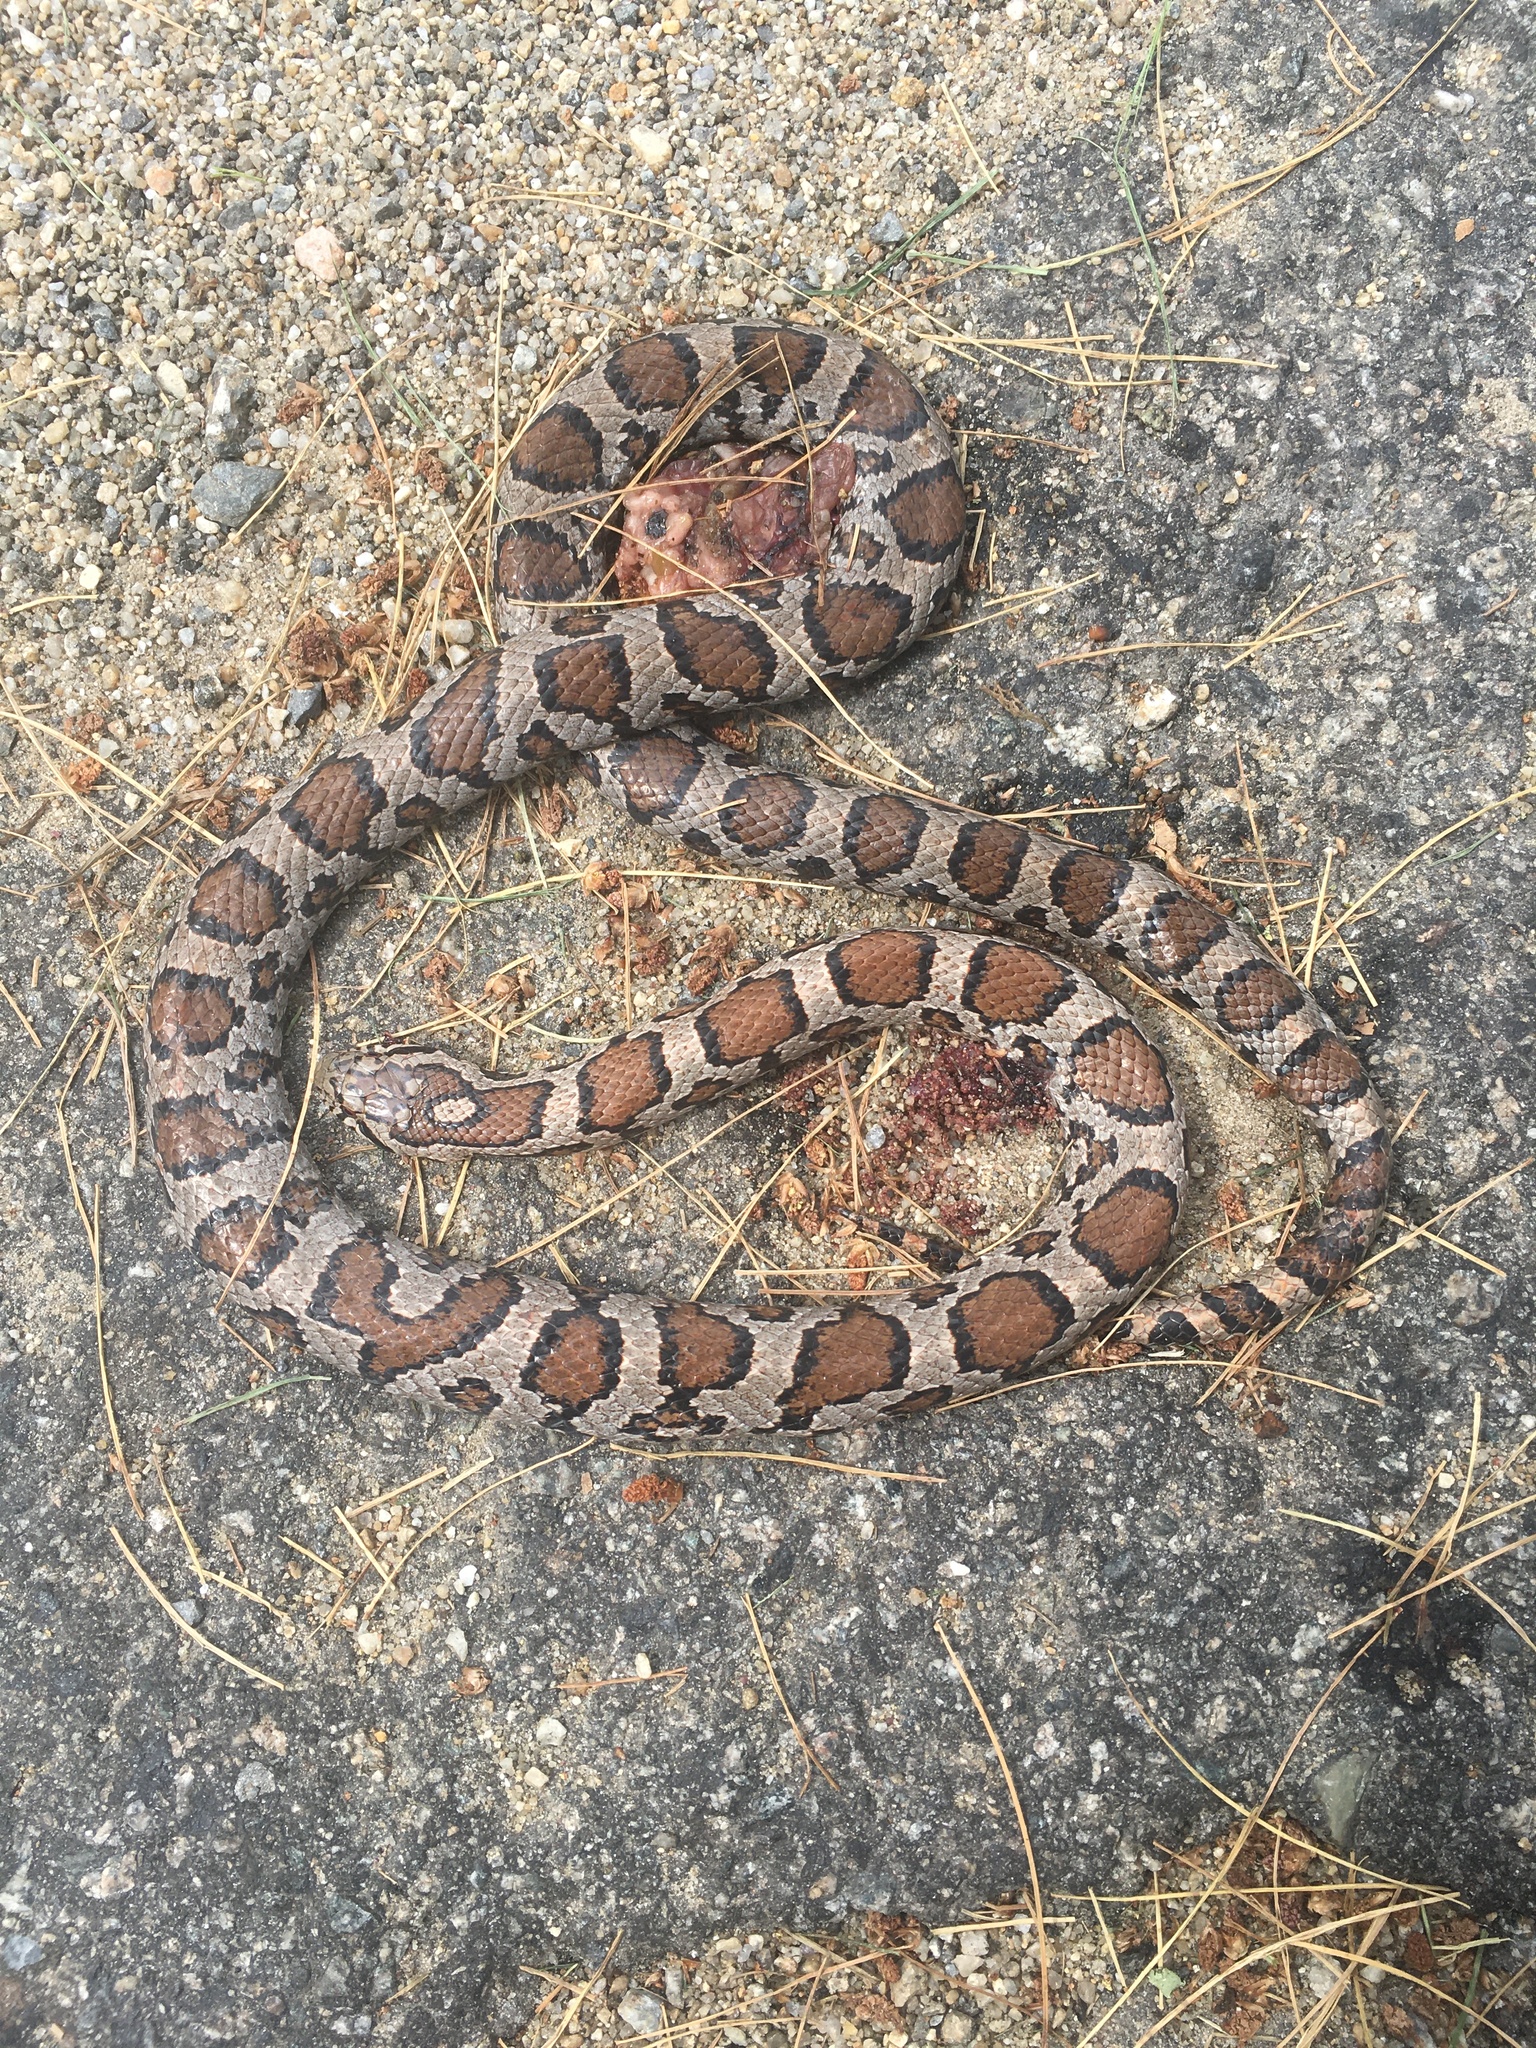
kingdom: Animalia
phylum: Chordata
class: Squamata
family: Colubridae
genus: Lampropeltis
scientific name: Lampropeltis triangulum
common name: Eastern milksnake
